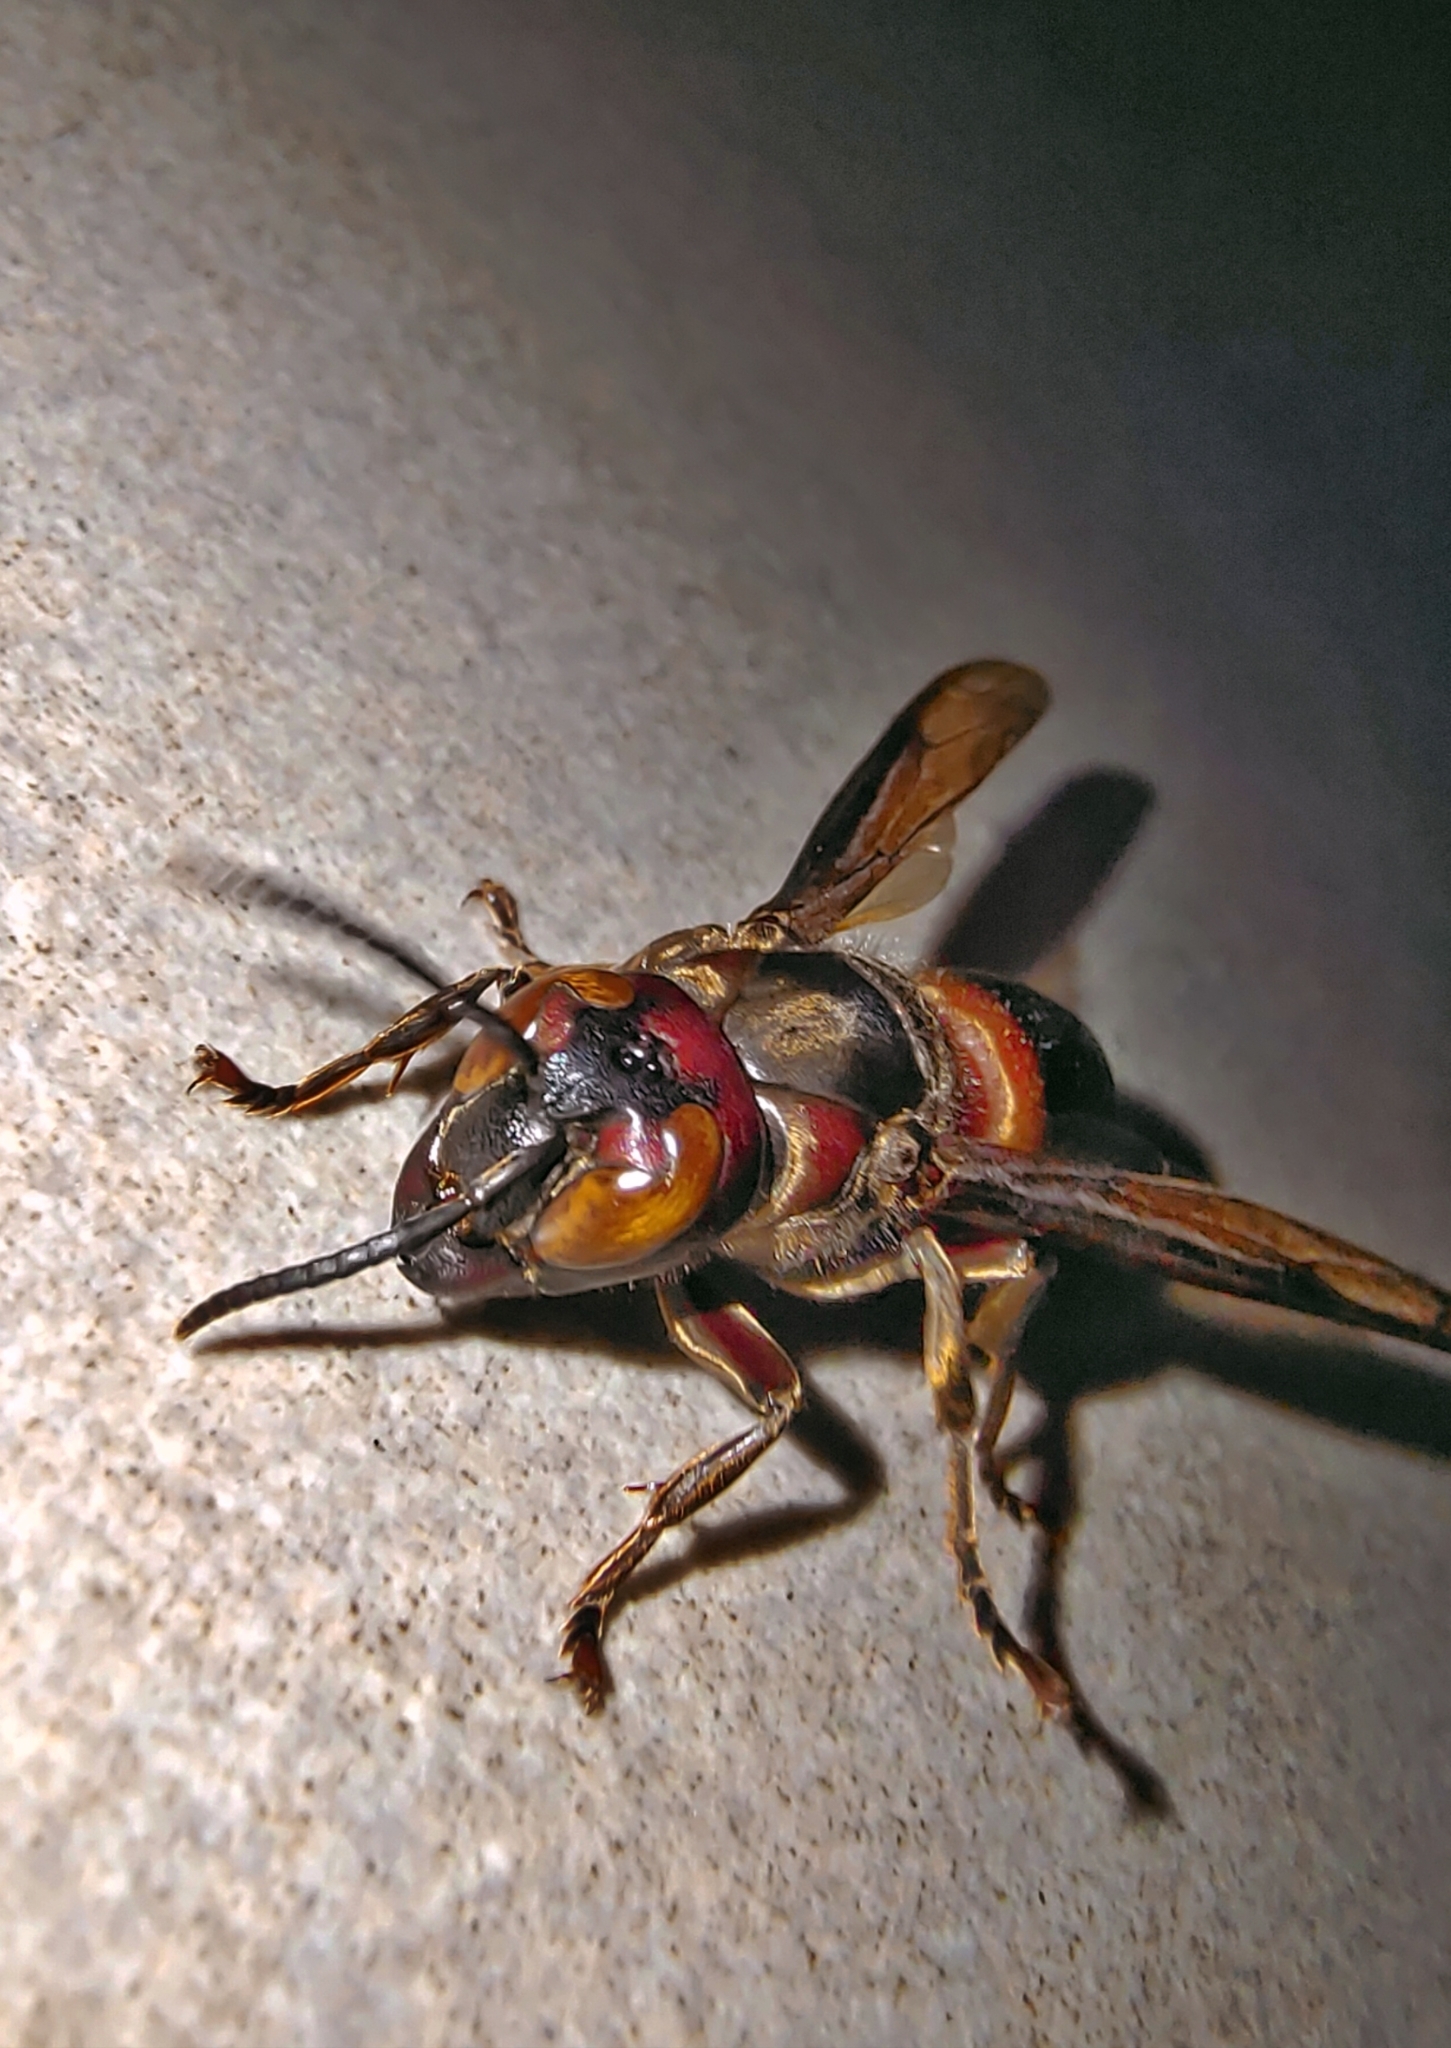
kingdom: Animalia
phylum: Arthropoda
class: Insecta
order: Hymenoptera
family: Vespidae
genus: Vespa
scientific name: Vespa analis
